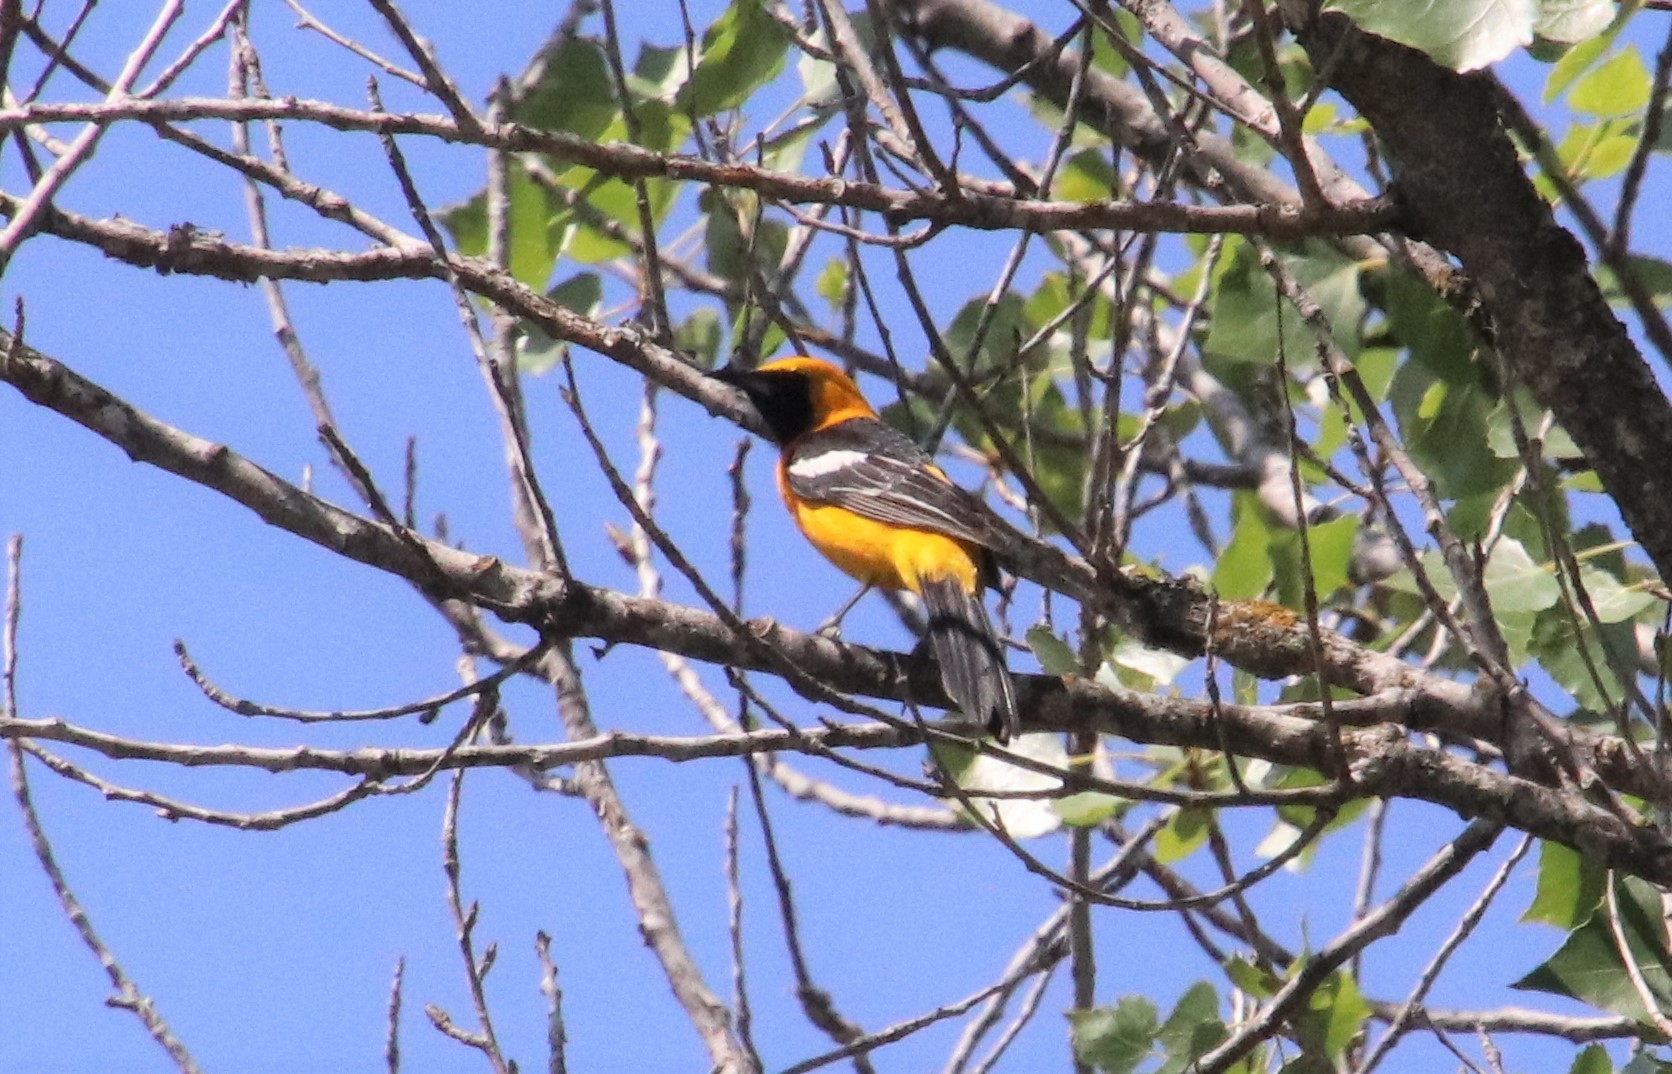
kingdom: Animalia
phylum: Chordata
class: Aves
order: Passeriformes
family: Icteridae
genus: Icterus
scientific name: Icterus cucullatus
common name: Hooded oriole
